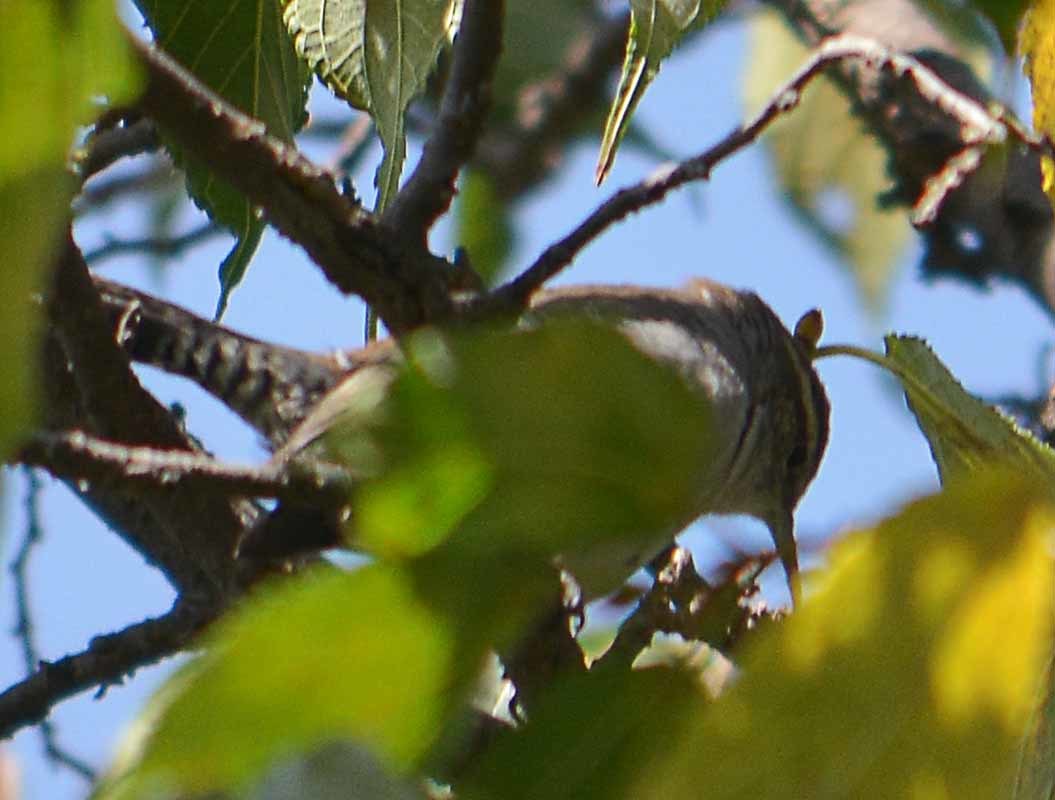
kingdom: Animalia
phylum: Chordata
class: Aves
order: Passeriformes
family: Troglodytidae
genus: Thryomanes
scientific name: Thryomanes bewickii
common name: Bewick's wren
